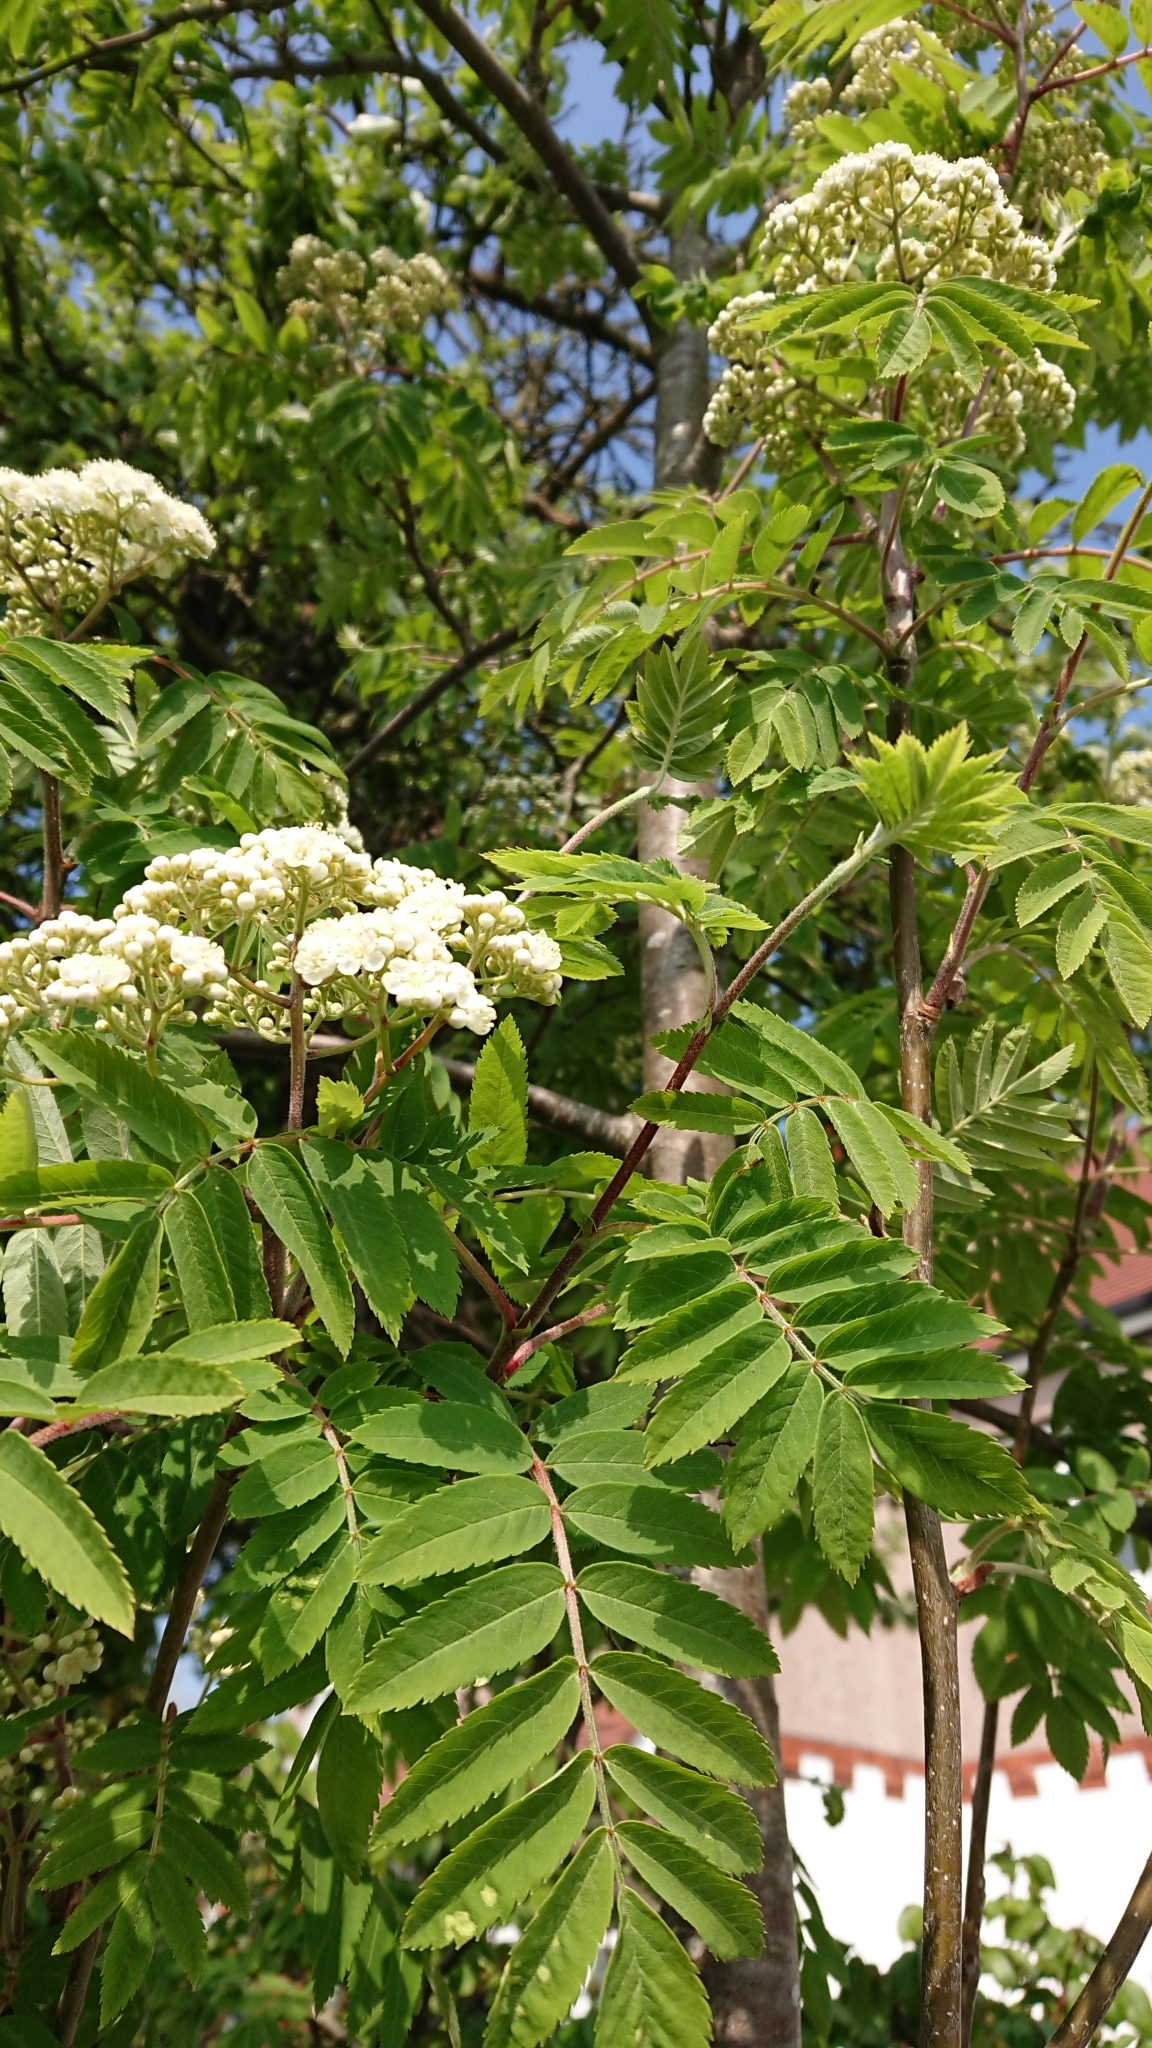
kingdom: Plantae
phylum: Tracheophyta
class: Magnoliopsida
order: Rosales
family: Rosaceae
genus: Sorbus
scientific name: Sorbus aucuparia
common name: Rowan
